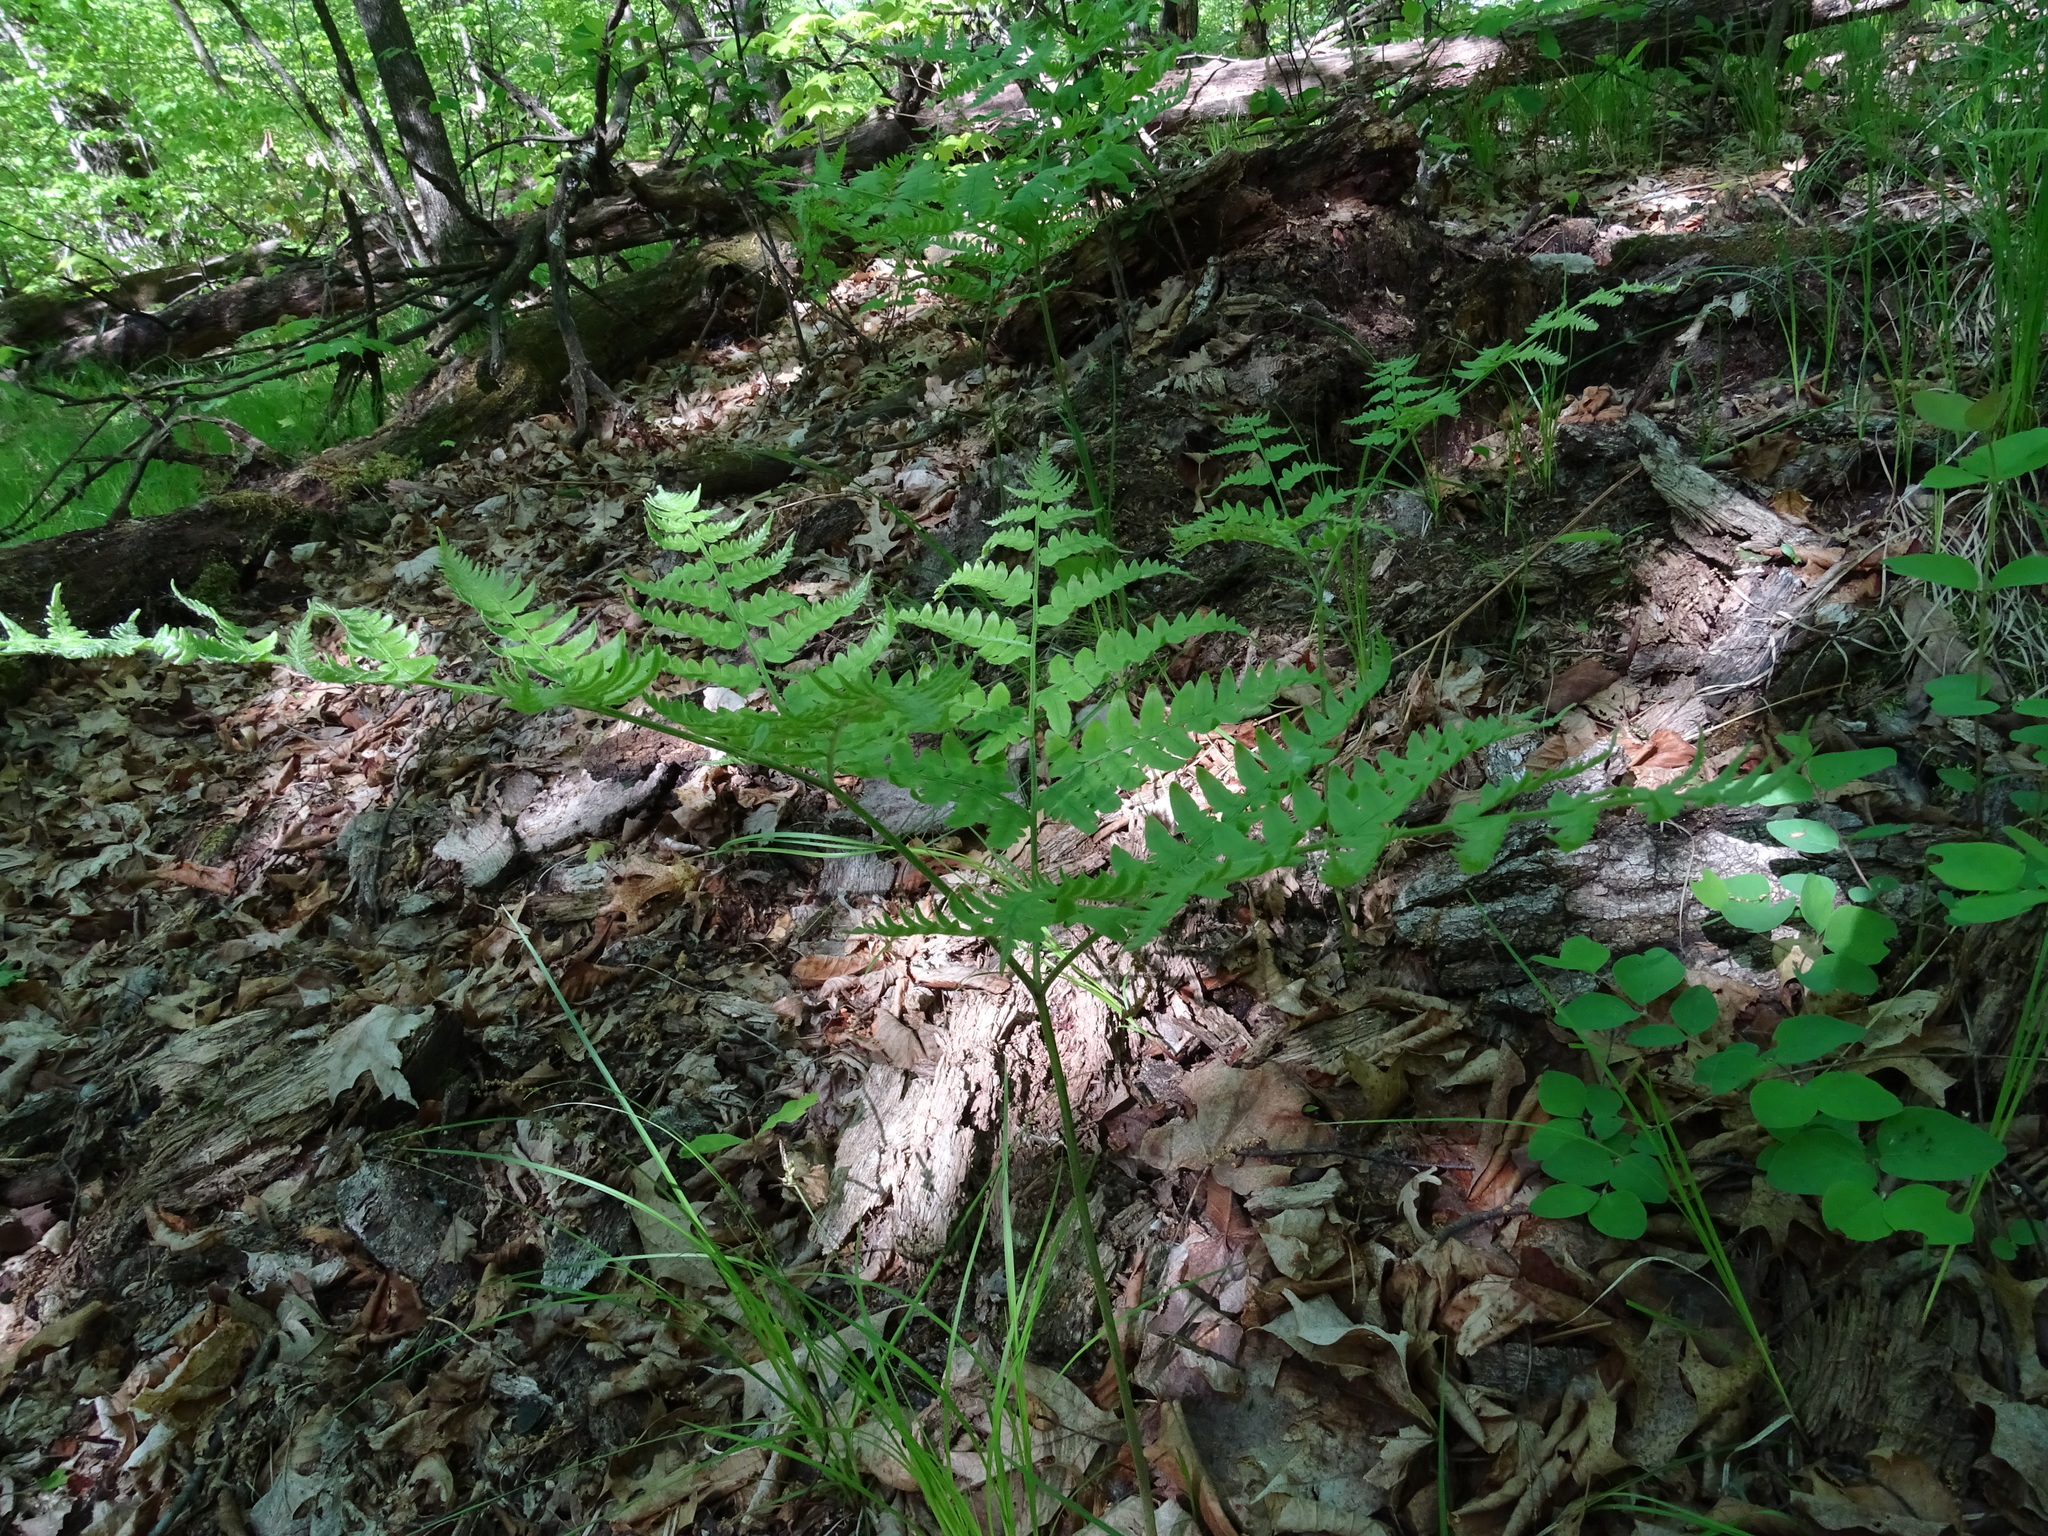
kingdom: Plantae
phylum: Tracheophyta
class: Polypodiopsida
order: Polypodiales
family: Dennstaedtiaceae
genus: Pteridium
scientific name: Pteridium aquilinum
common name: Bracken
